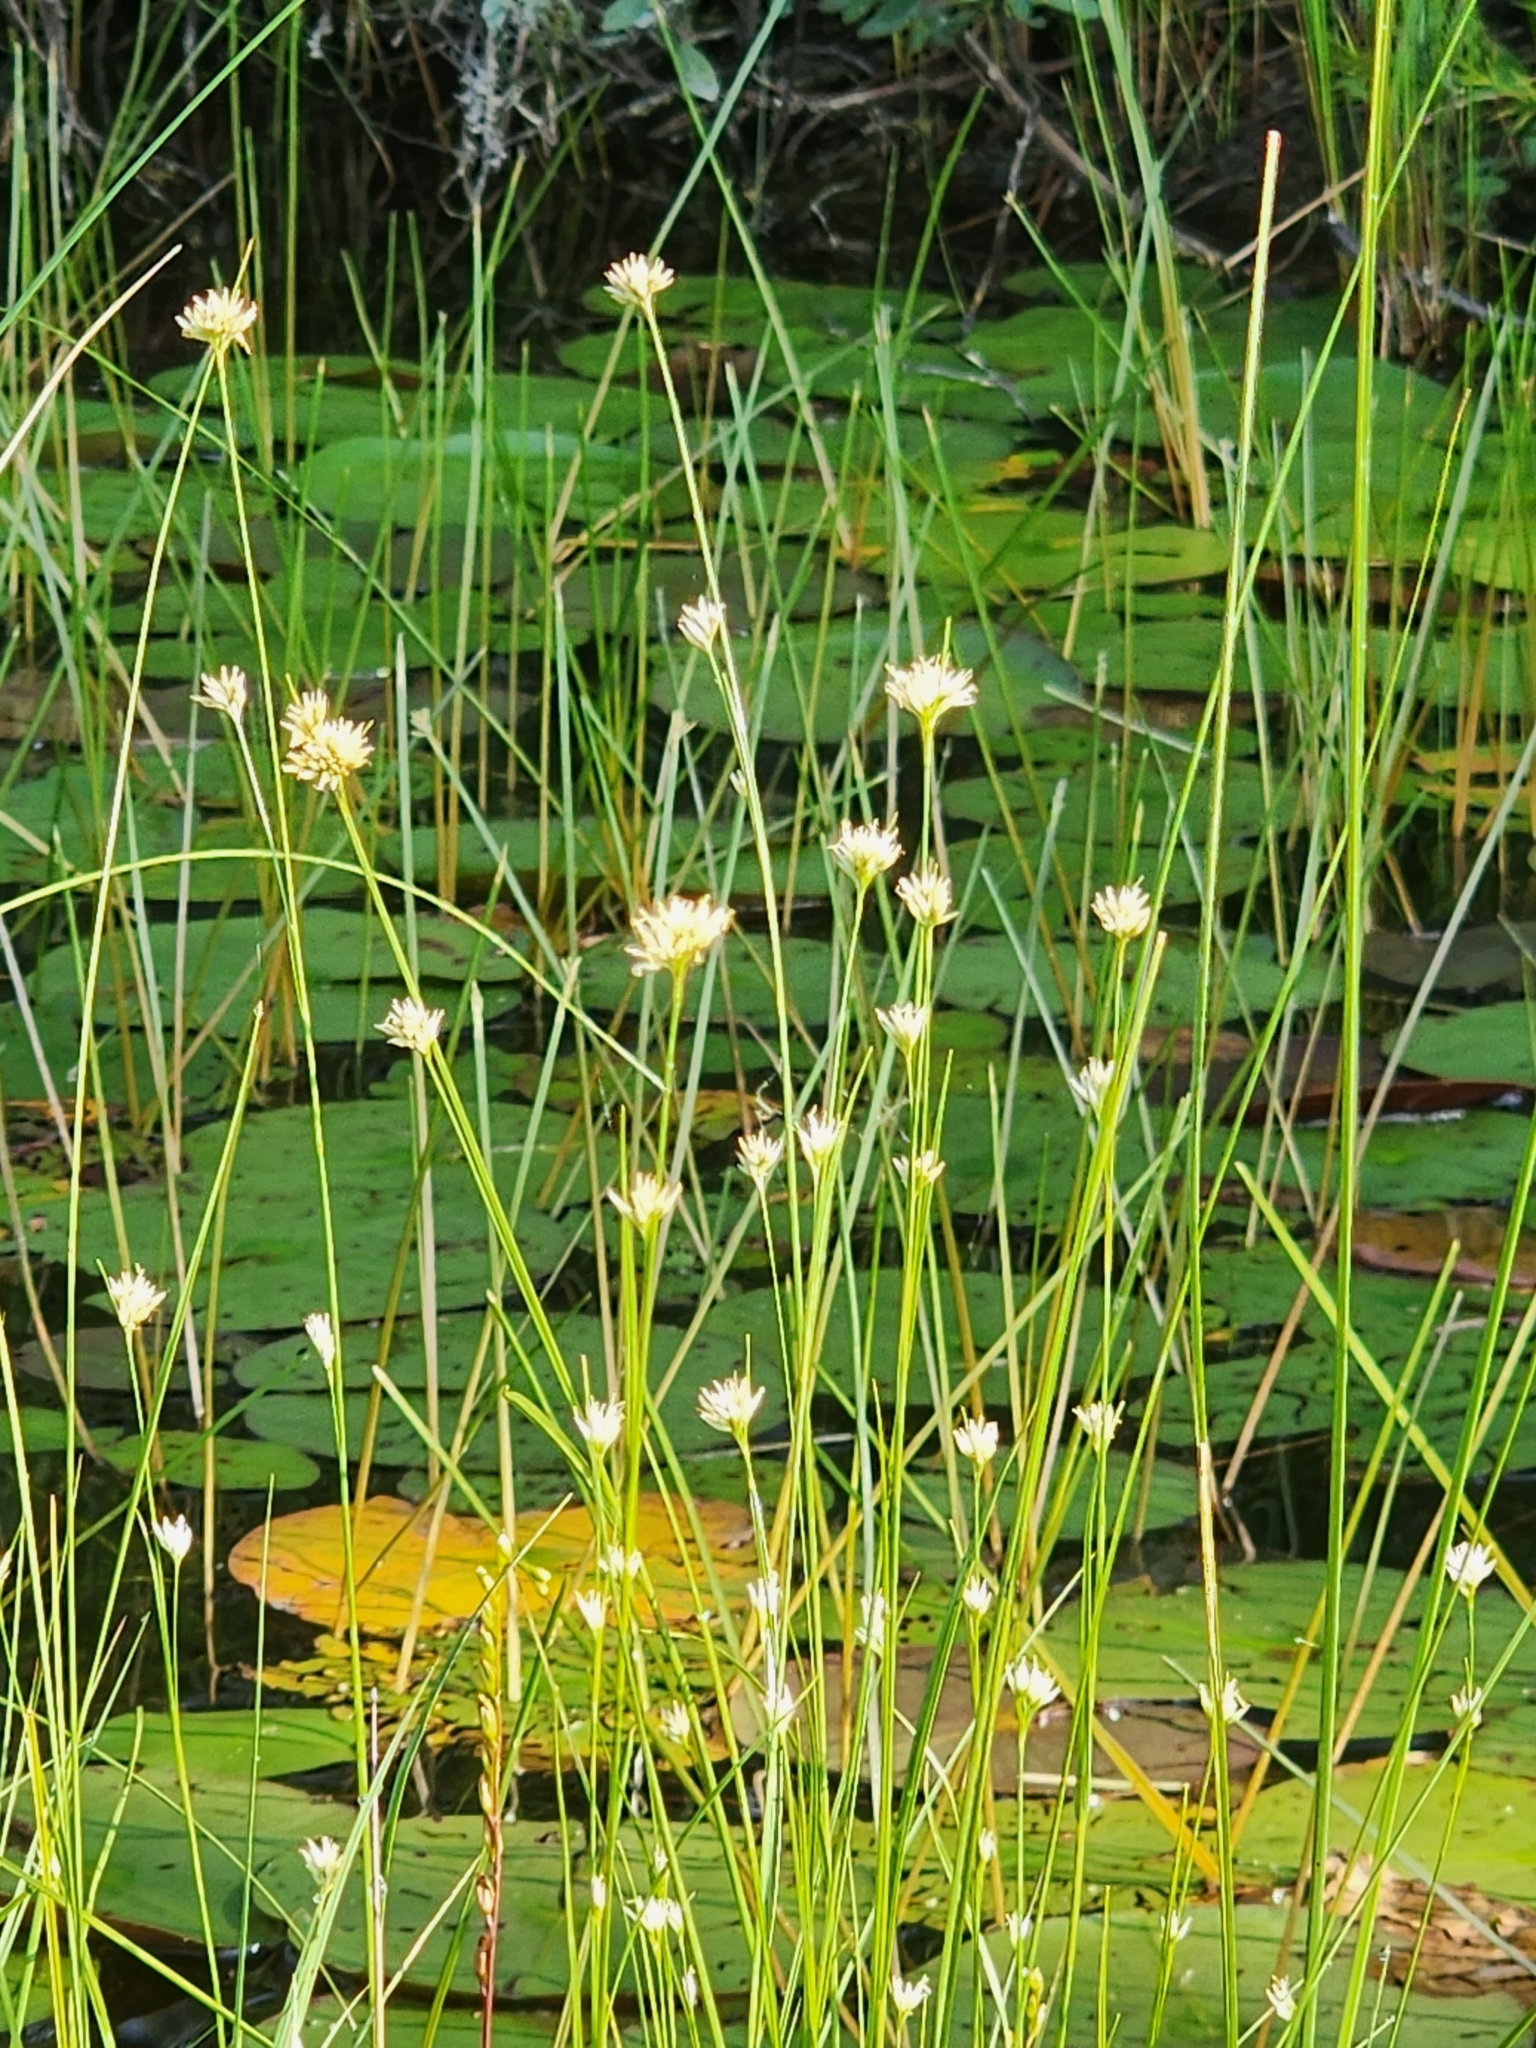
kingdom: Plantae
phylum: Tracheophyta
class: Liliopsida
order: Poales
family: Cyperaceae
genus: Rhynchospora
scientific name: Rhynchospora alba
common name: White beak-sedge
